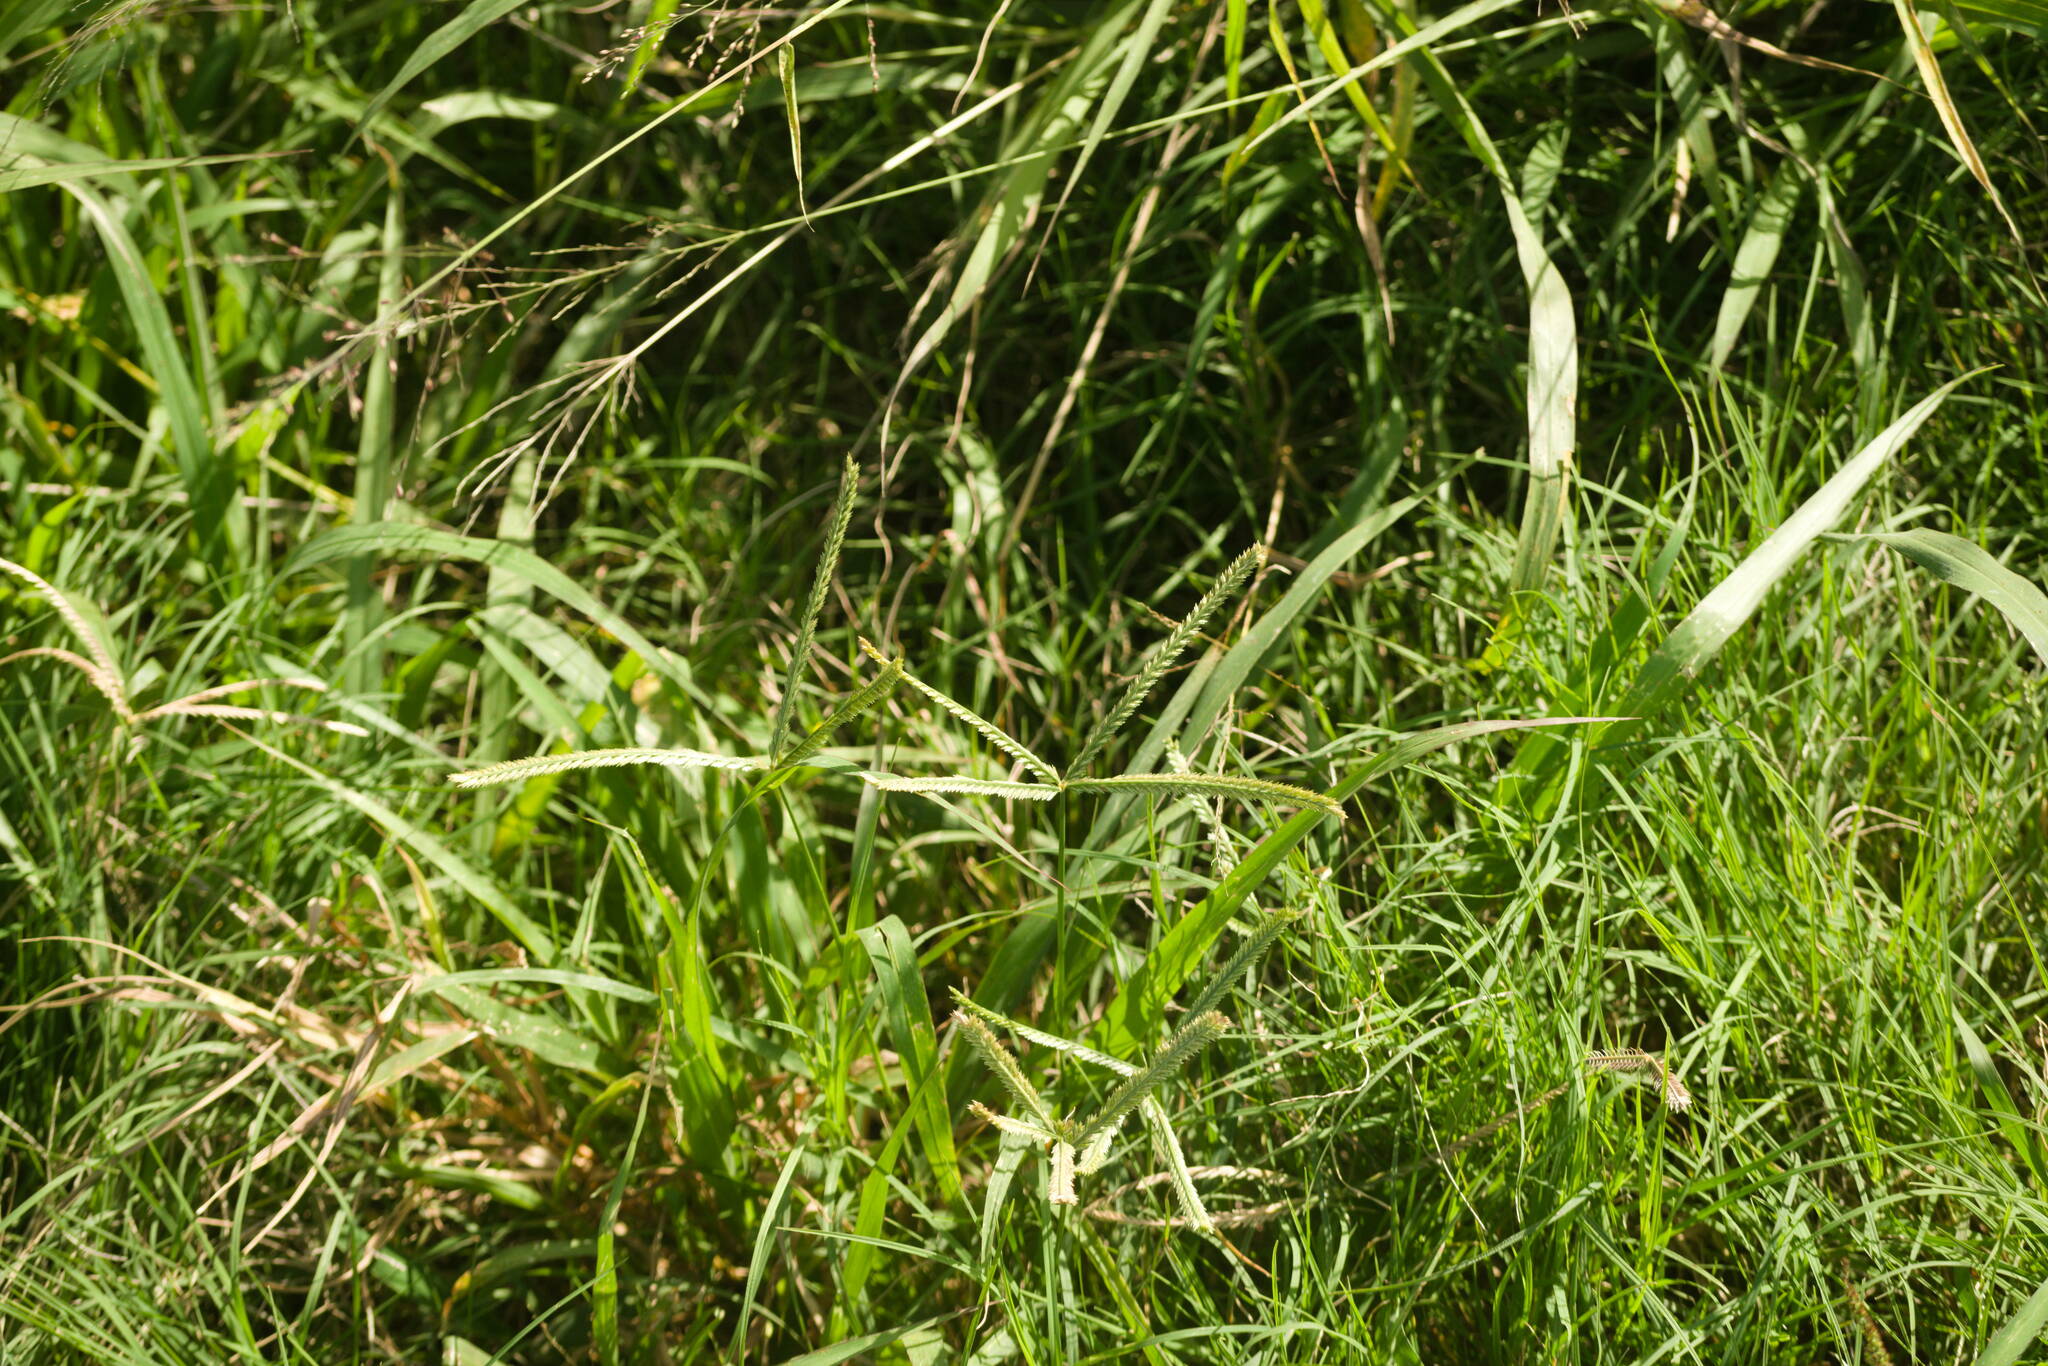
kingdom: Plantae
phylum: Tracheophyta
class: Liliopsida
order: Poales
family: Poaceae
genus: Eleusine
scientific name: Eleusine indica
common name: Yard-grass
